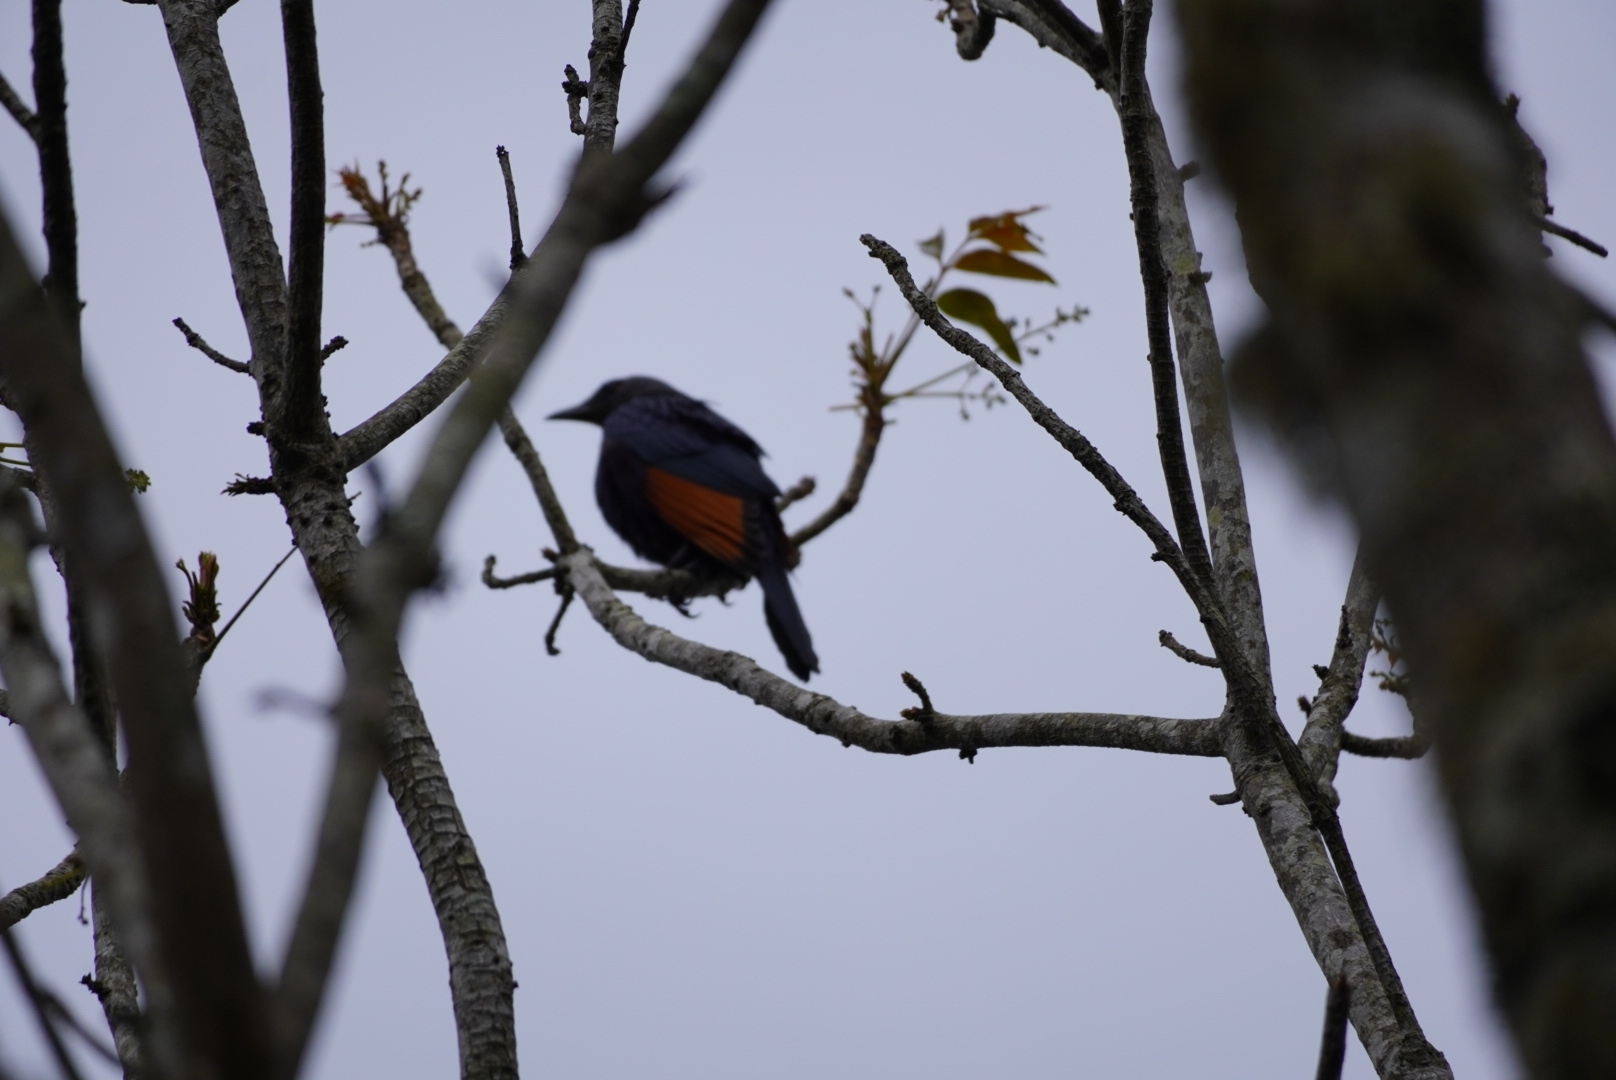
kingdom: Animalia
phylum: Chordata
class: Aves
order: Passeriformes
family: Sturnidae
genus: Onychognathus
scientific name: Onychognathus morio
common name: Red-winged starling
